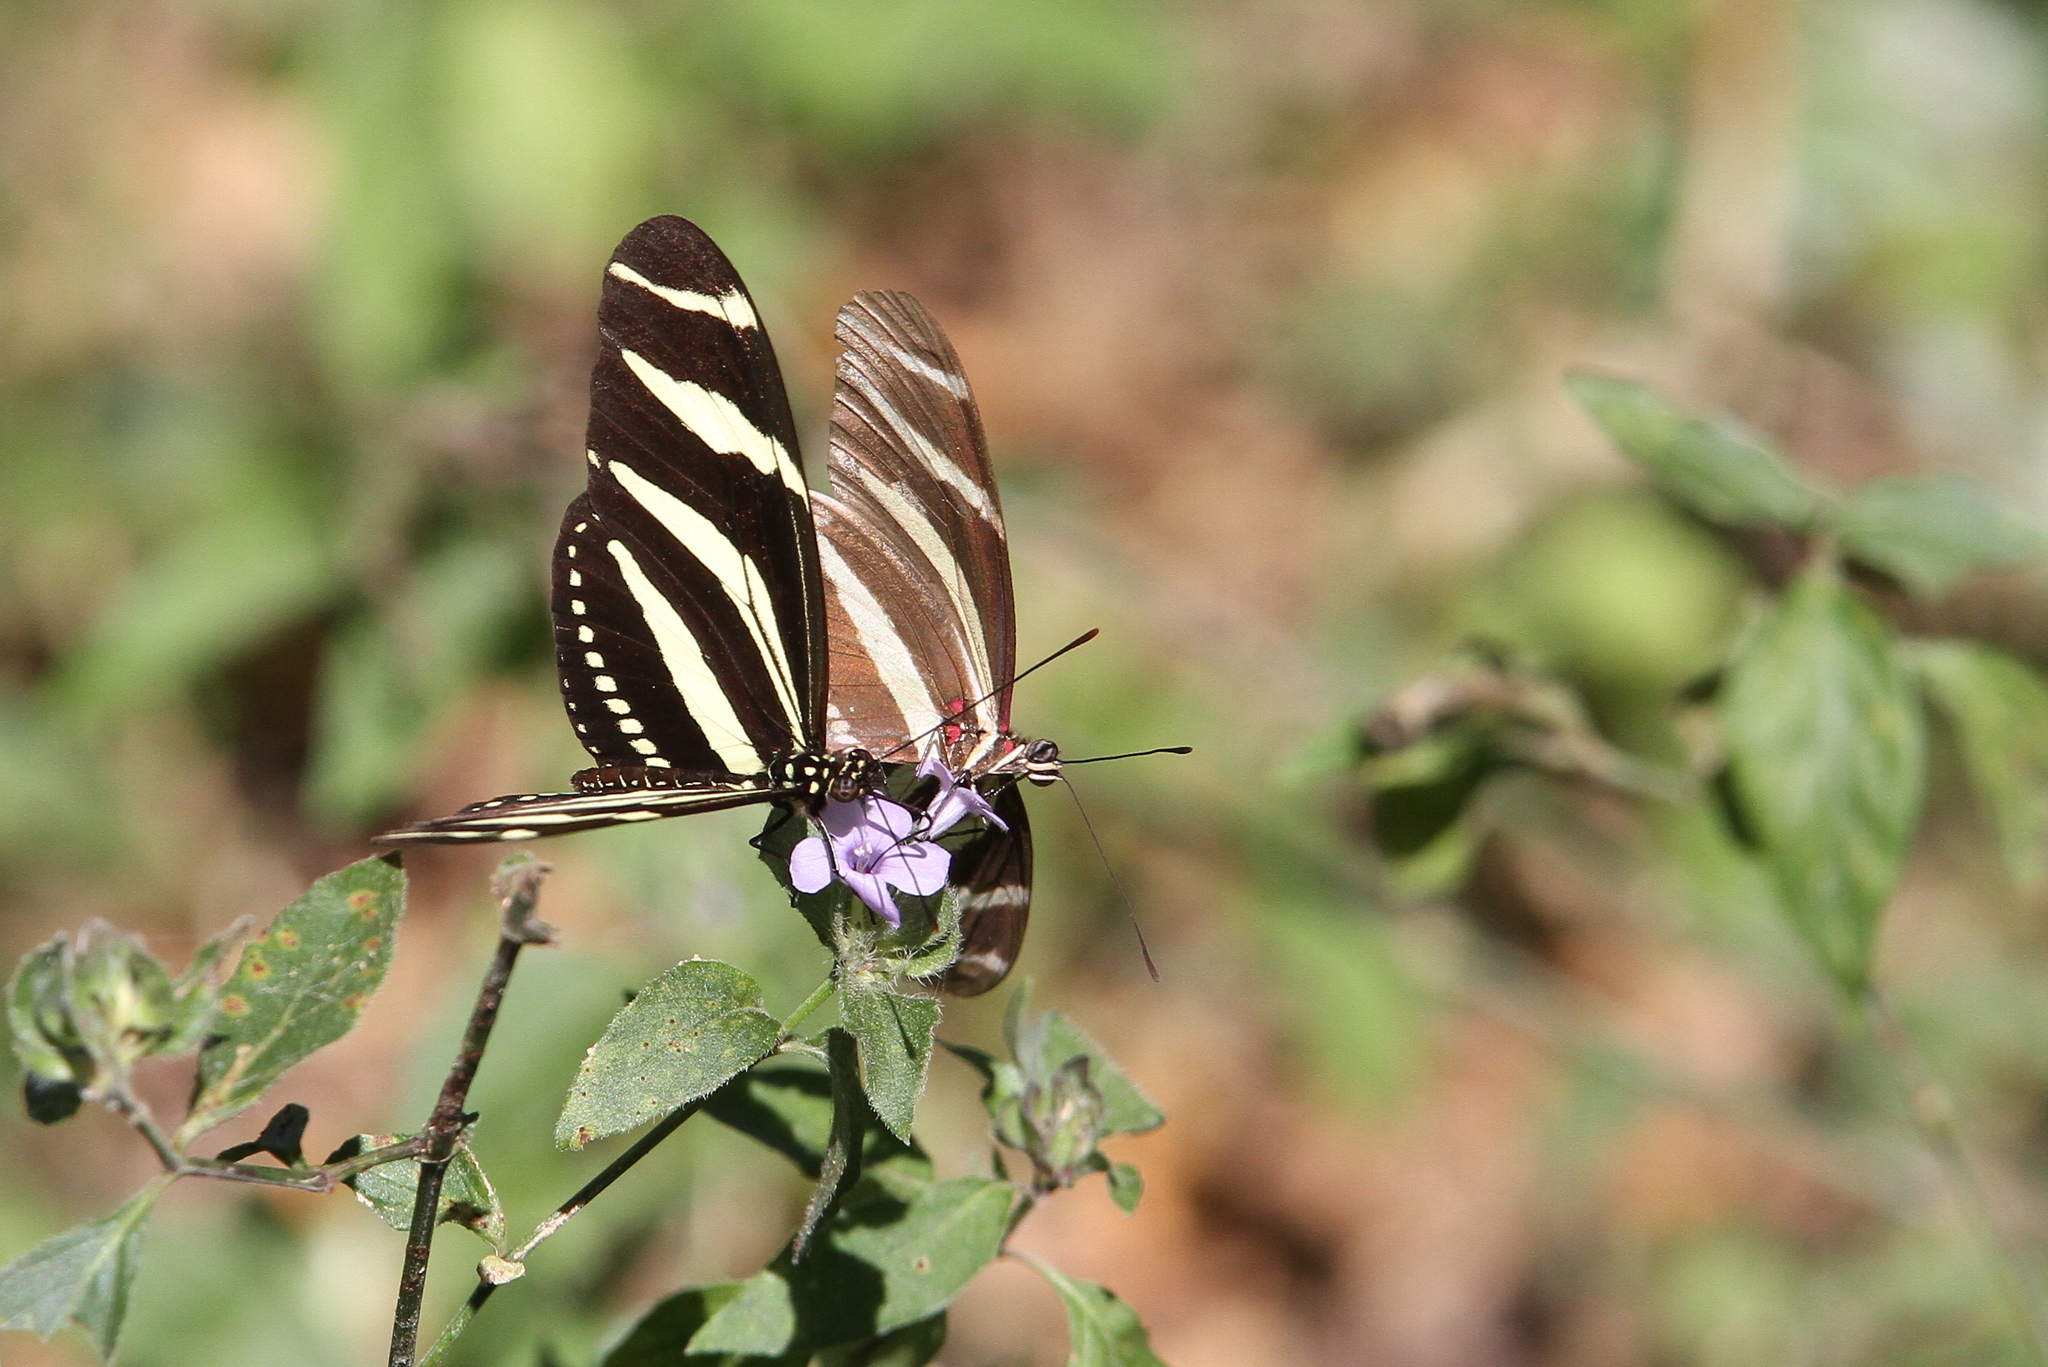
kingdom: Animalia
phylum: Arthropoda
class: Insecta
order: Lepidoptera
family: Nymphalidae
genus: Heliconius
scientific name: Heliconius charithonia
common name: Zebra long wing
